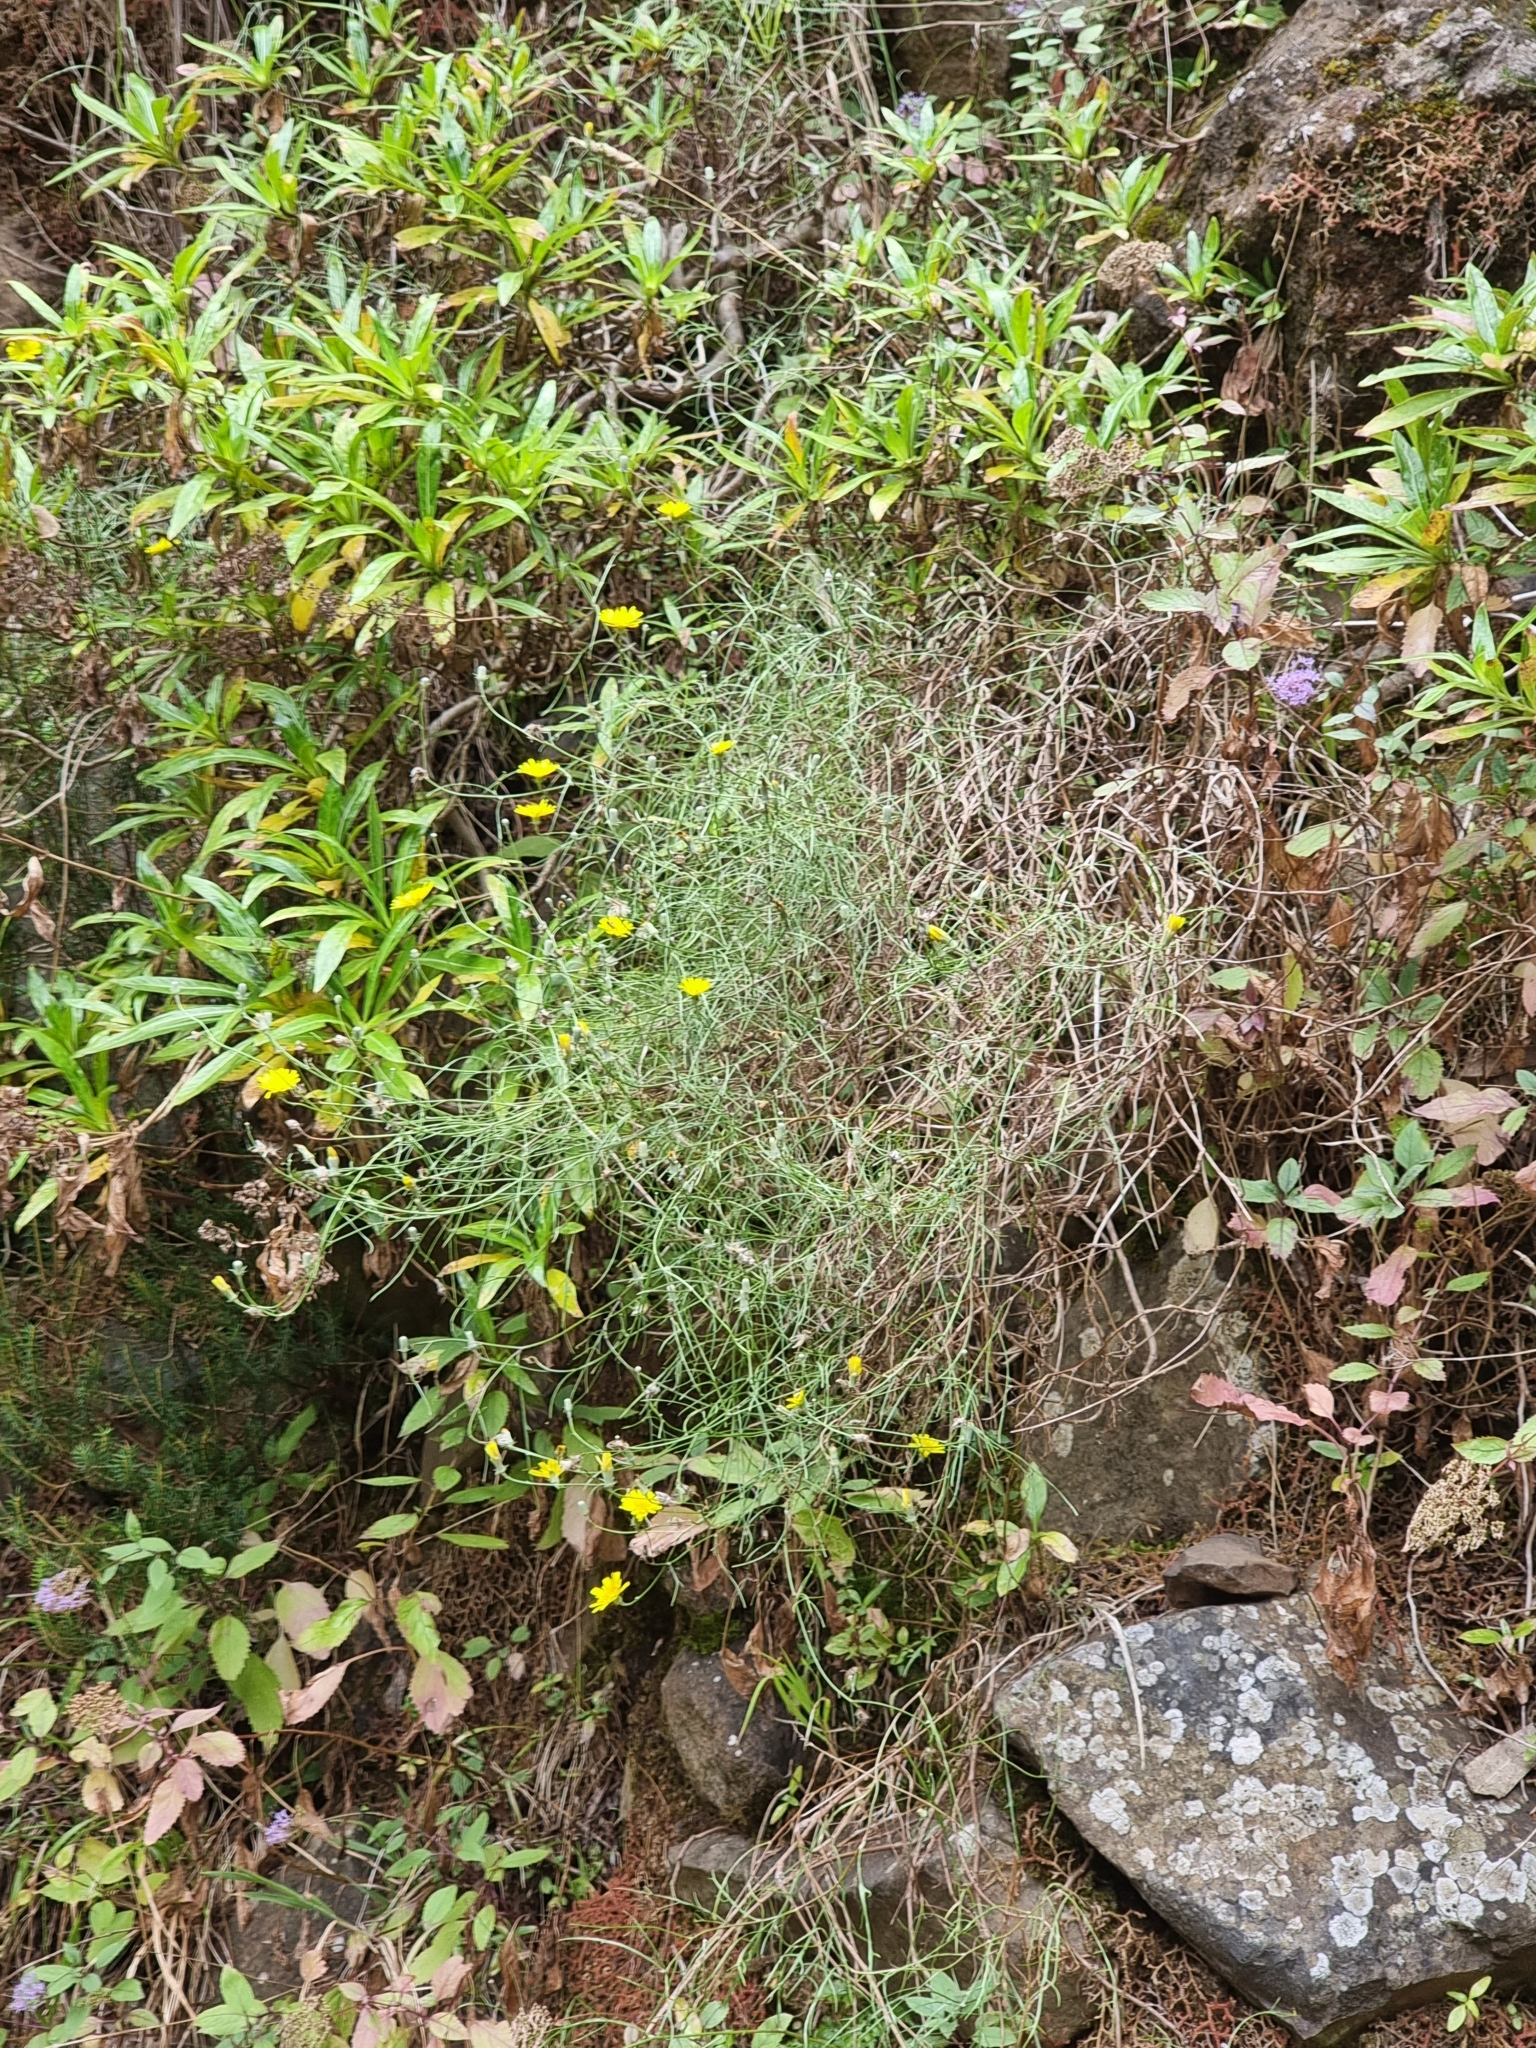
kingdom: Plantae
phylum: Tracheophyta
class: Magnoliopsida
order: Asterales
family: Asteraceae
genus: Tolpis
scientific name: Tolpis succulenta
